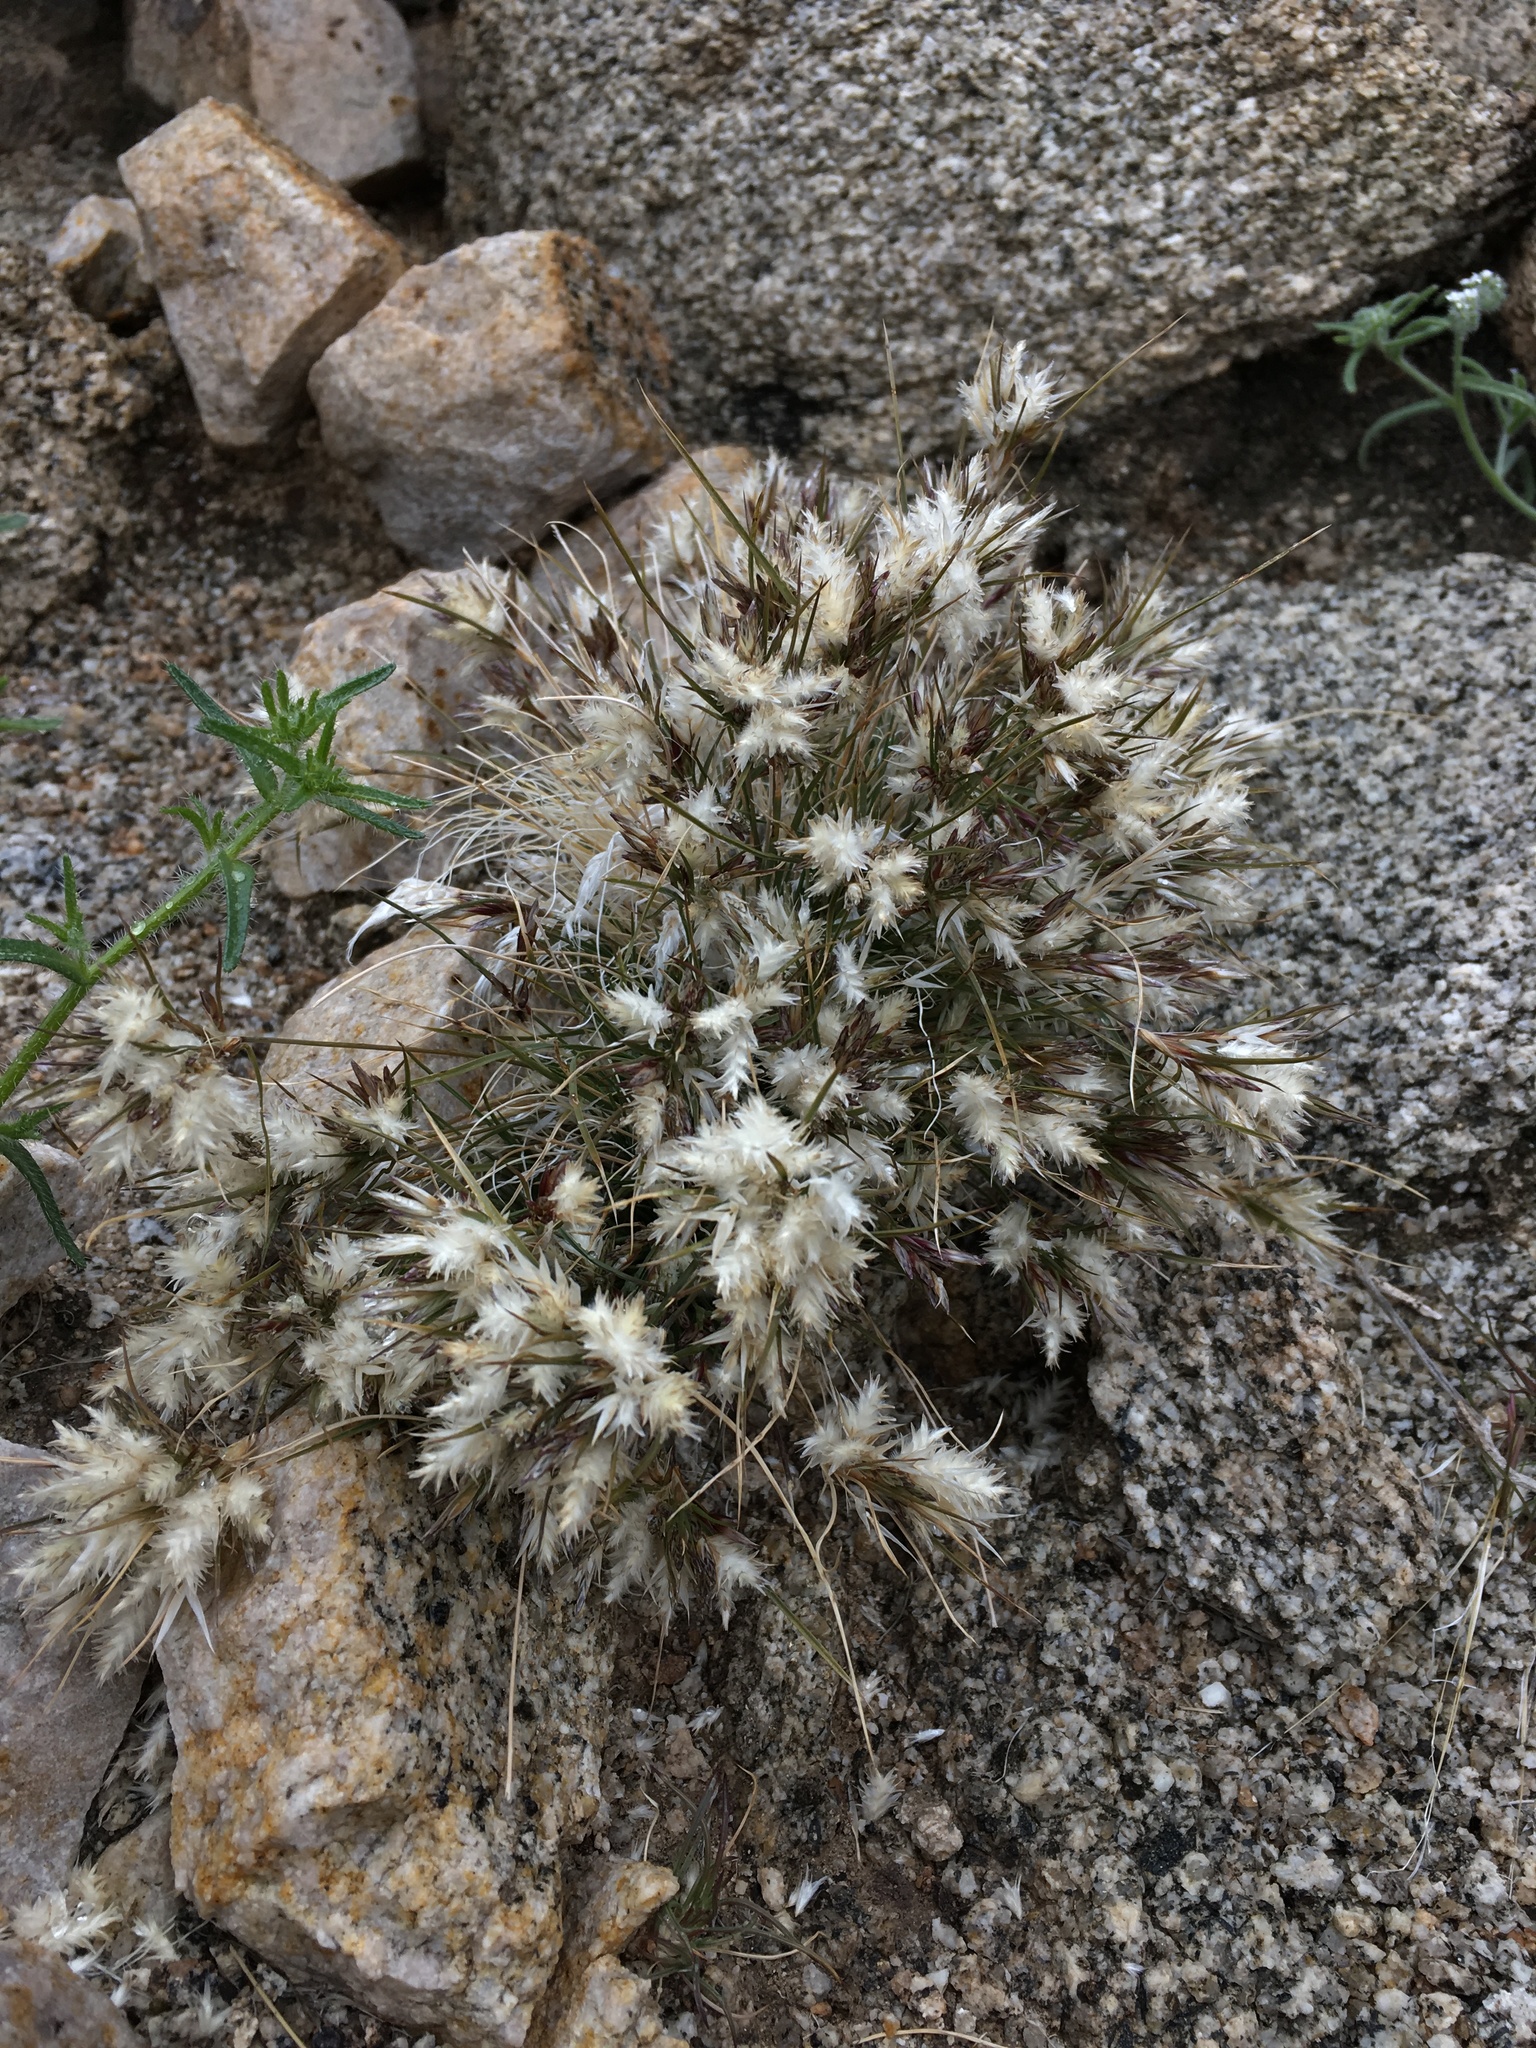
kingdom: Plantae
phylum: Tracheophyta
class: Liliopsida
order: Poales
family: Poaceae
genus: Dasyochloa
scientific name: Dasyochloa pulchella
